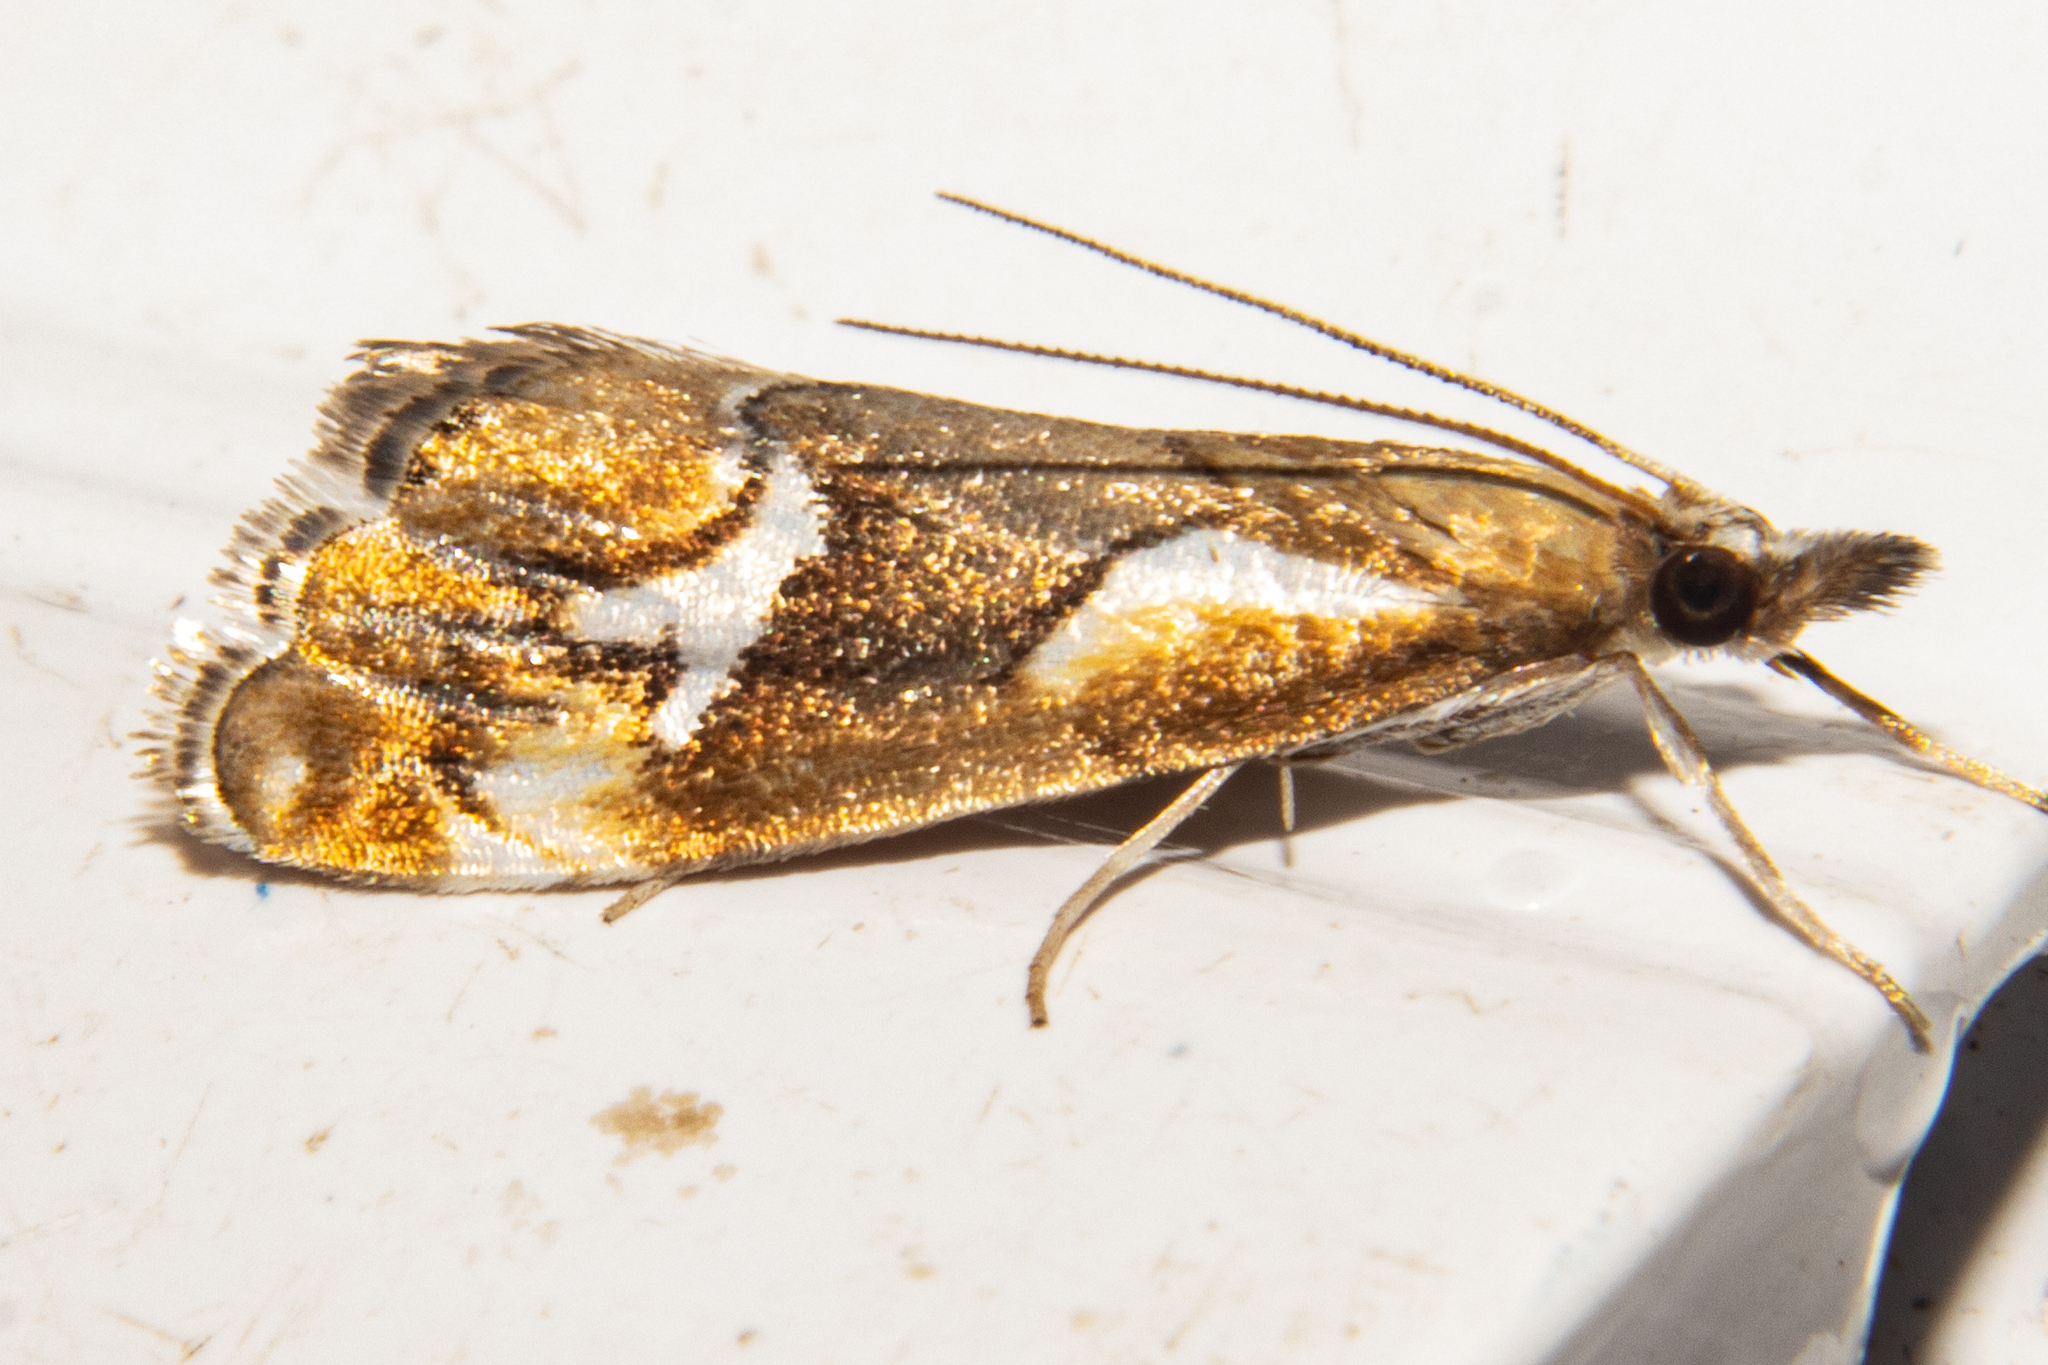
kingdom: Animalia
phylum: Arthropoda
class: Insecta
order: Lepidoptera
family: Crambidae
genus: Glaucocharis
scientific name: Glaucocharis interruptus
